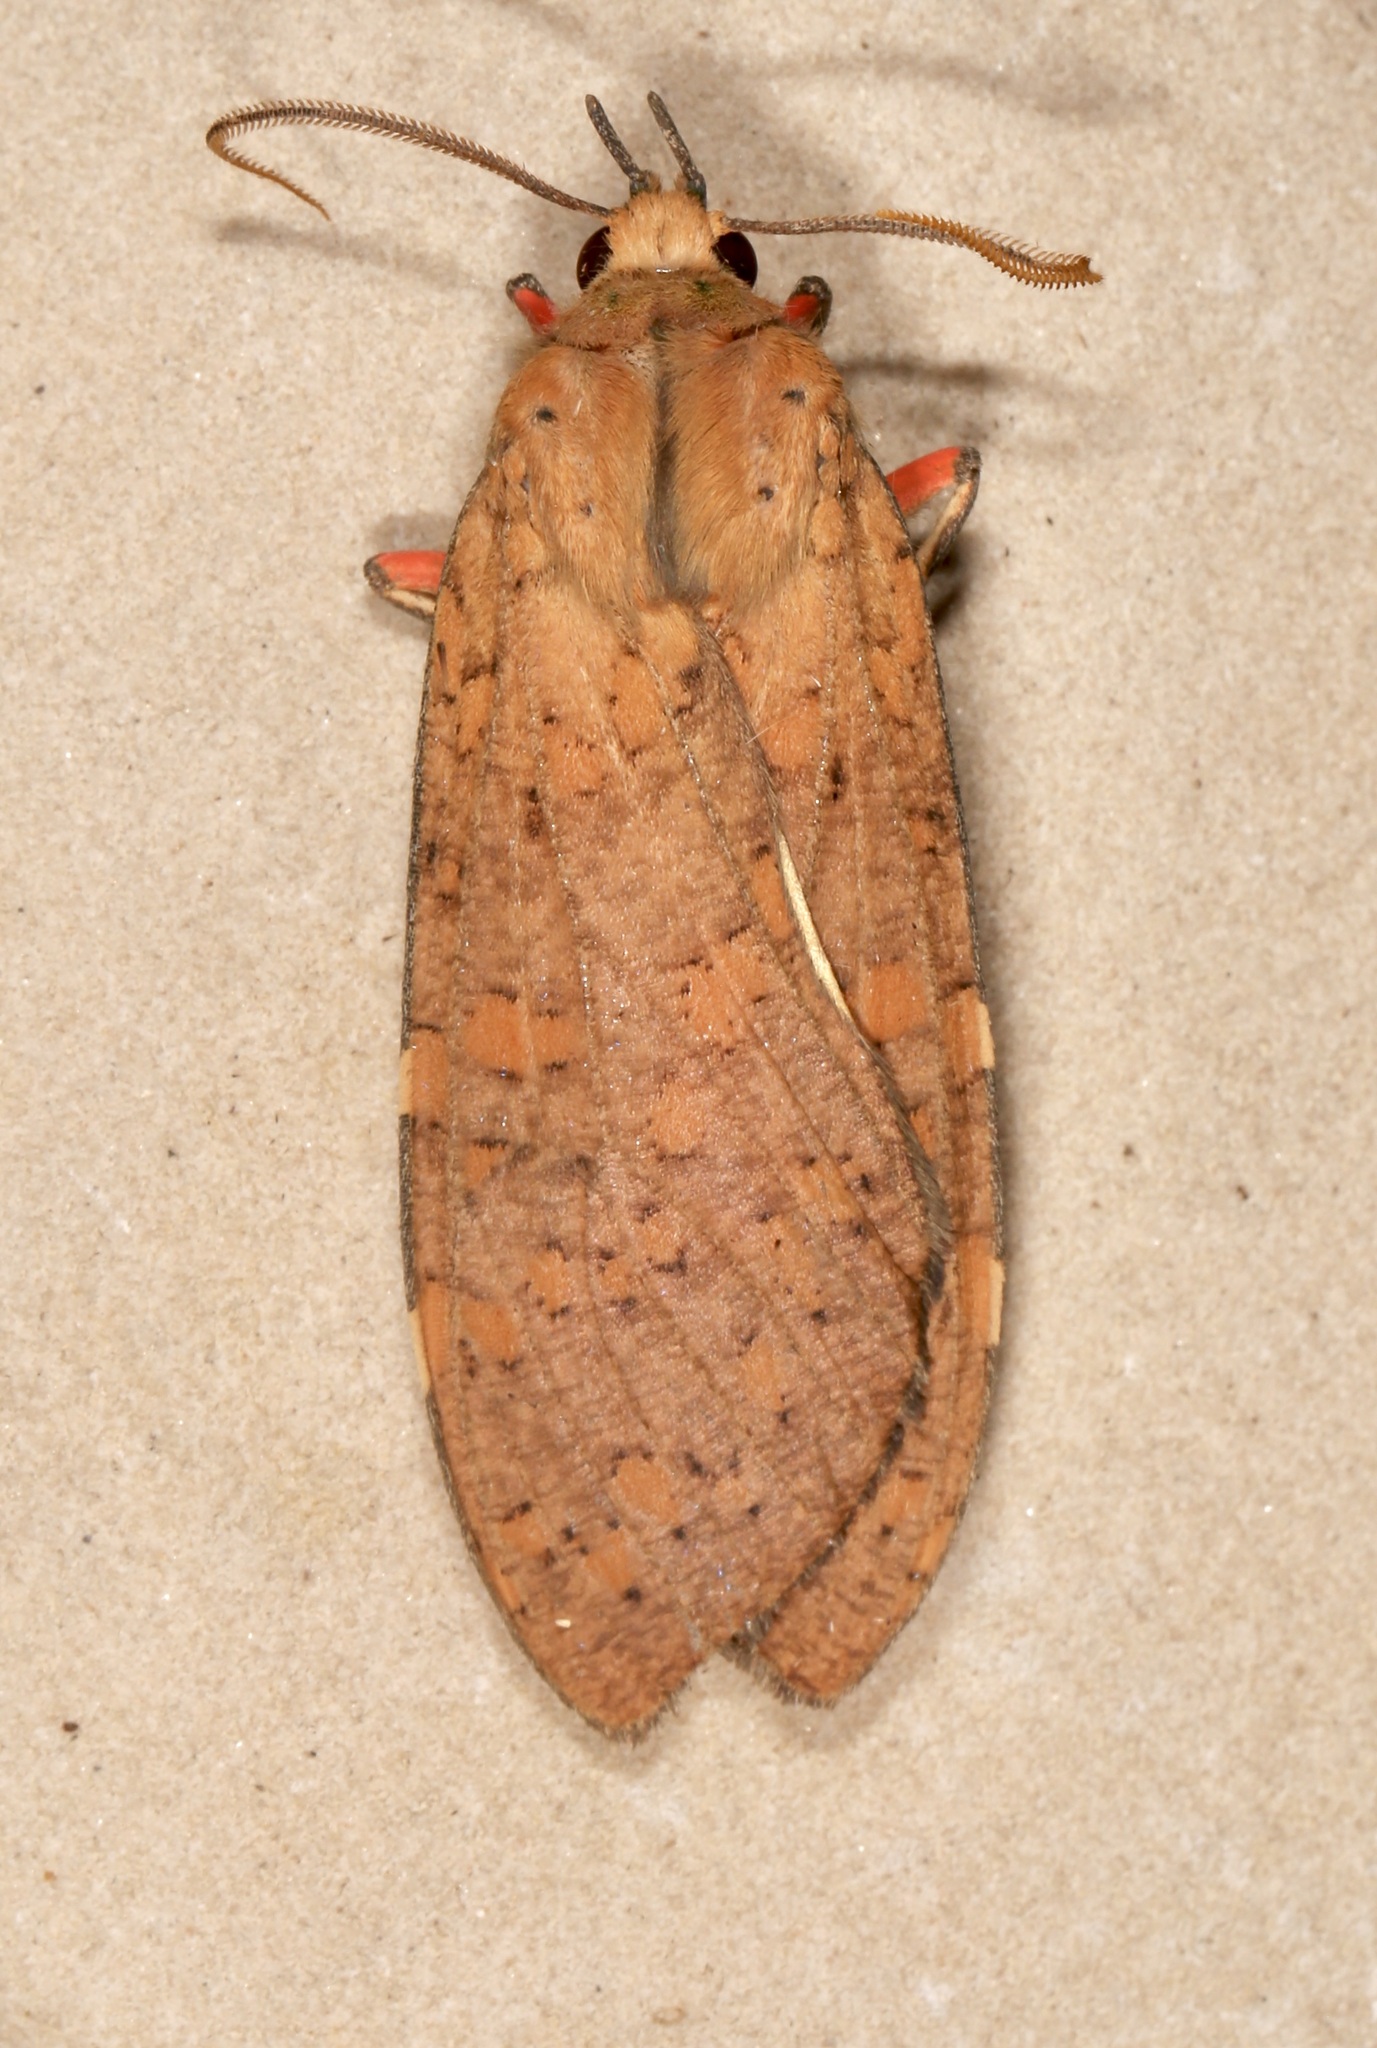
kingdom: Animalia
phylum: Arthropoda
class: Insecta
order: Lepidoptera
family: Erebidae
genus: Apocrisias
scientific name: Apocrisias thaumasta
